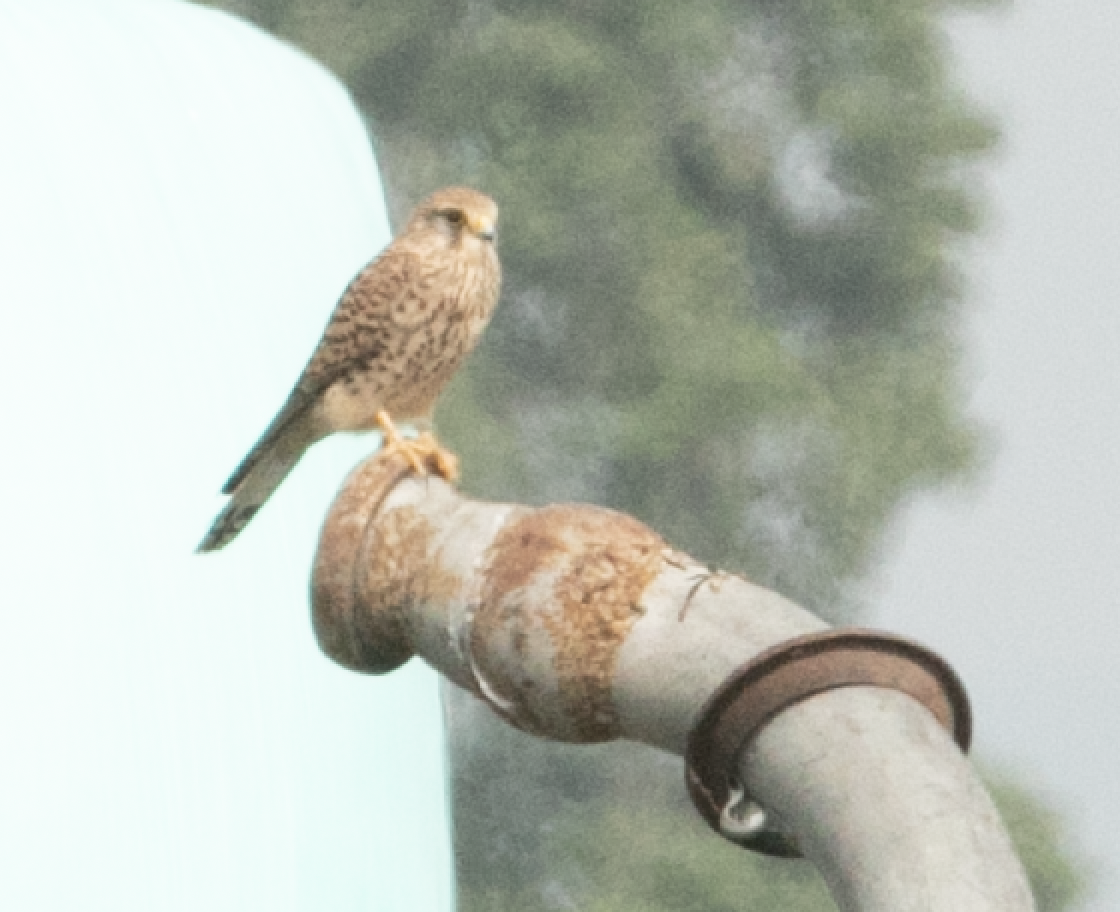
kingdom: Animalia
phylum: Chordata
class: Aves
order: Falconiformes
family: Falconidae
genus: Falco
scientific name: Falco tinnunculus
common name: Common kestrel
